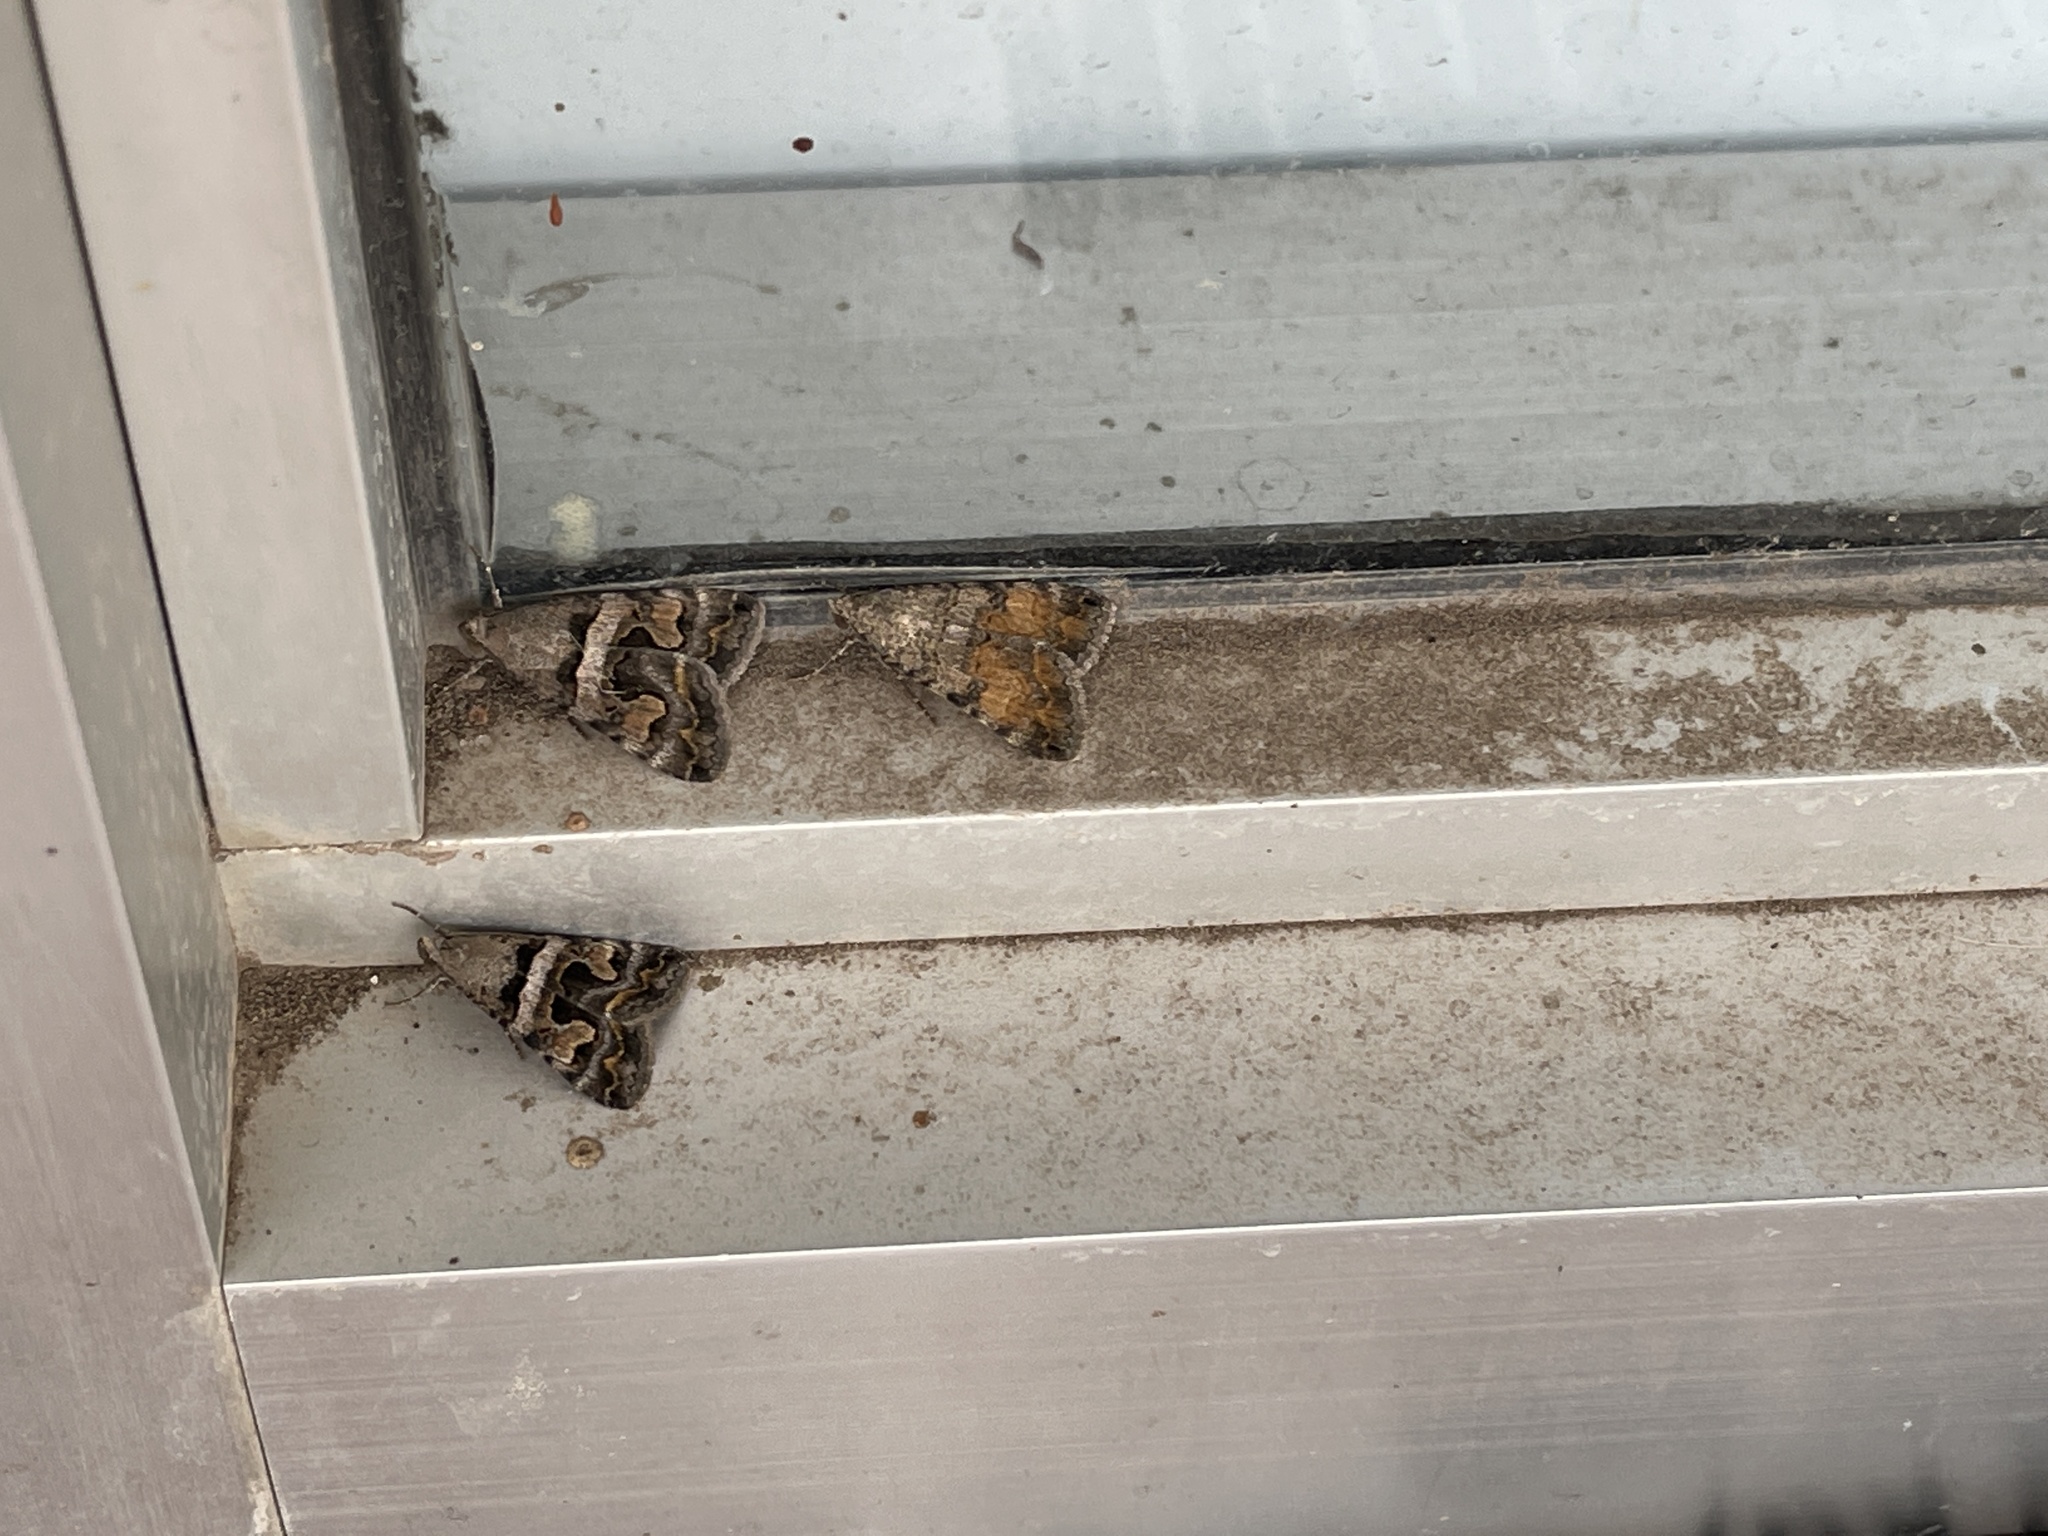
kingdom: Animalia
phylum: Arthropoda
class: Insecta
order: Lepidoptera
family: Erebidae
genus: Bulia
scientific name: Bulia deducta
